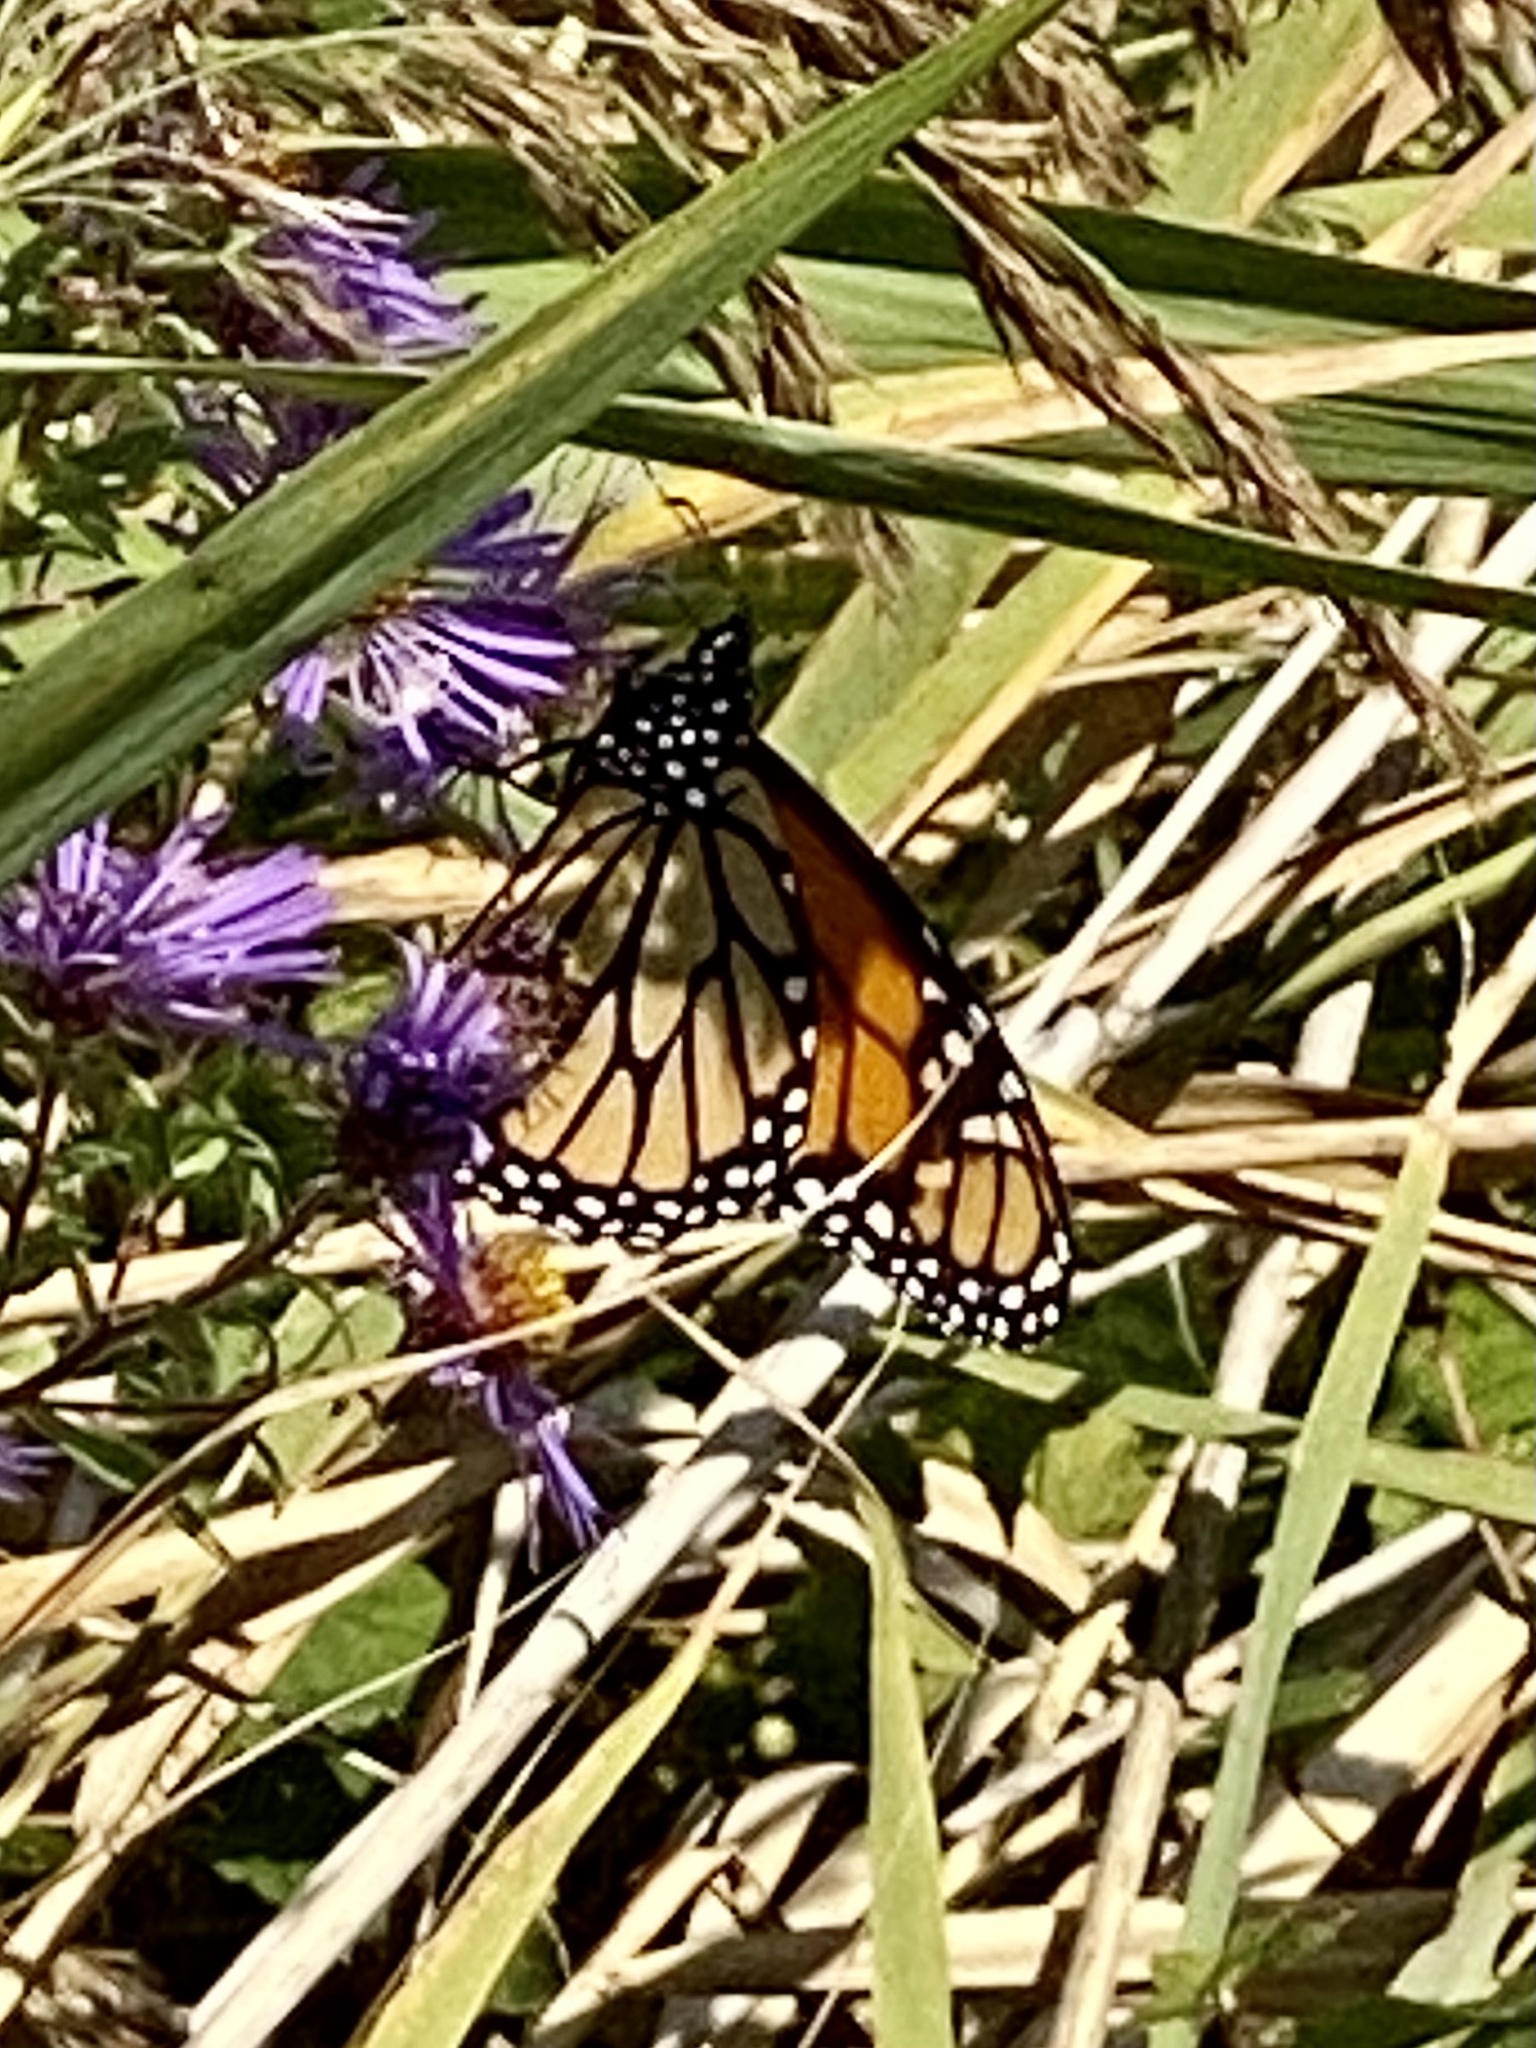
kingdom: Animalia
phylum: Arthropoda
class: Insecta
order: Lepidoptera
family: Nymphalidae
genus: Danaus
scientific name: Danaus plexippus
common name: Monarch
